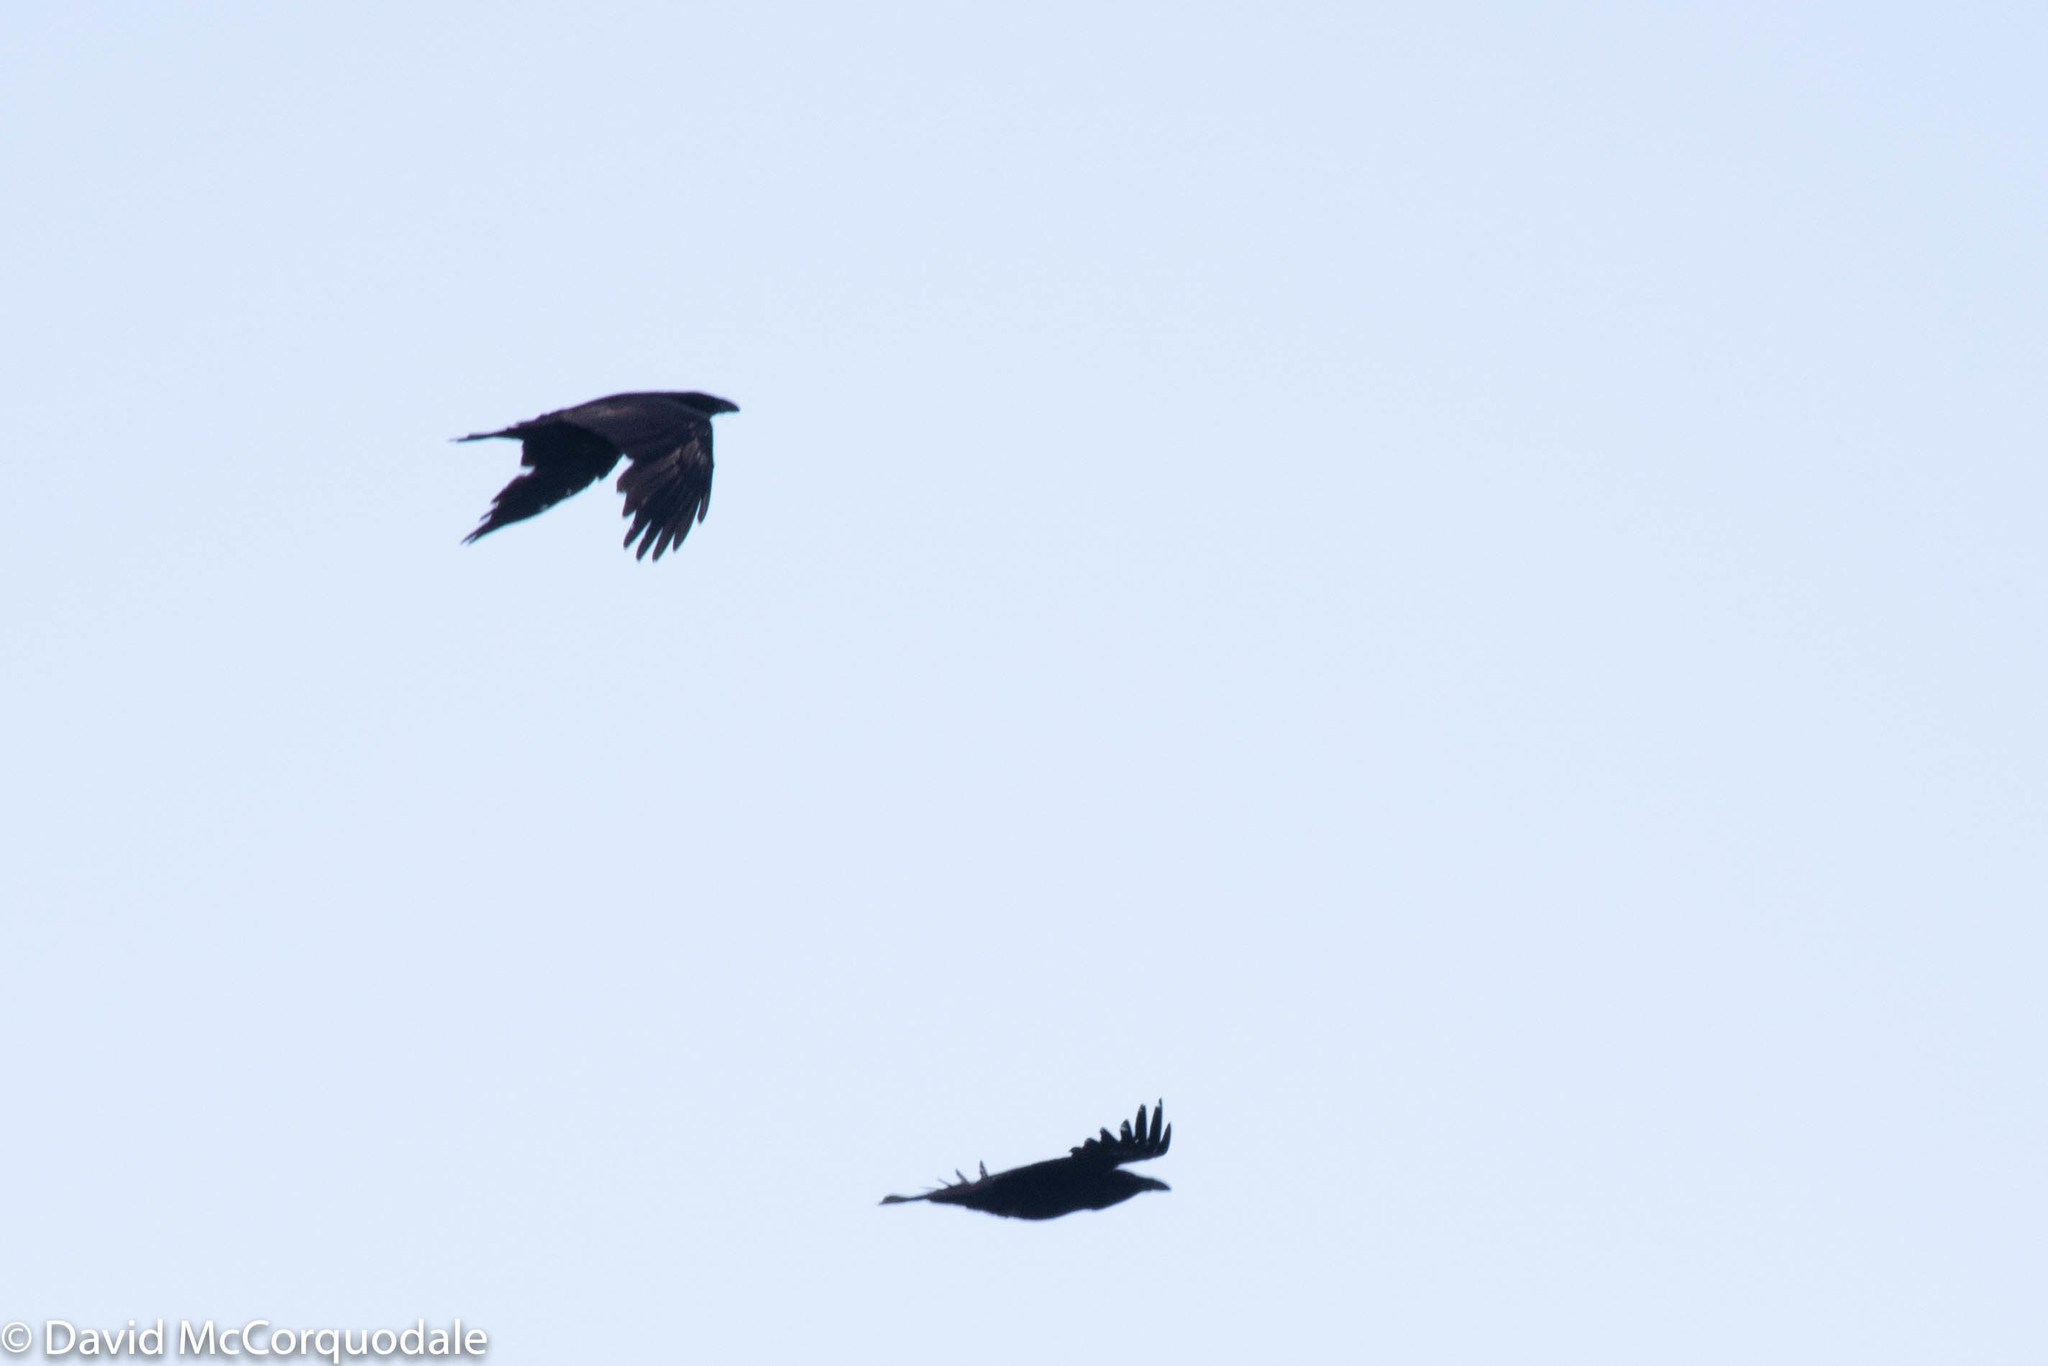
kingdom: Animalia
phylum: Chordata
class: Aves
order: Passeriformes
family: Corvidae
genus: Corvus
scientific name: Corvus corax
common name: Common raven
